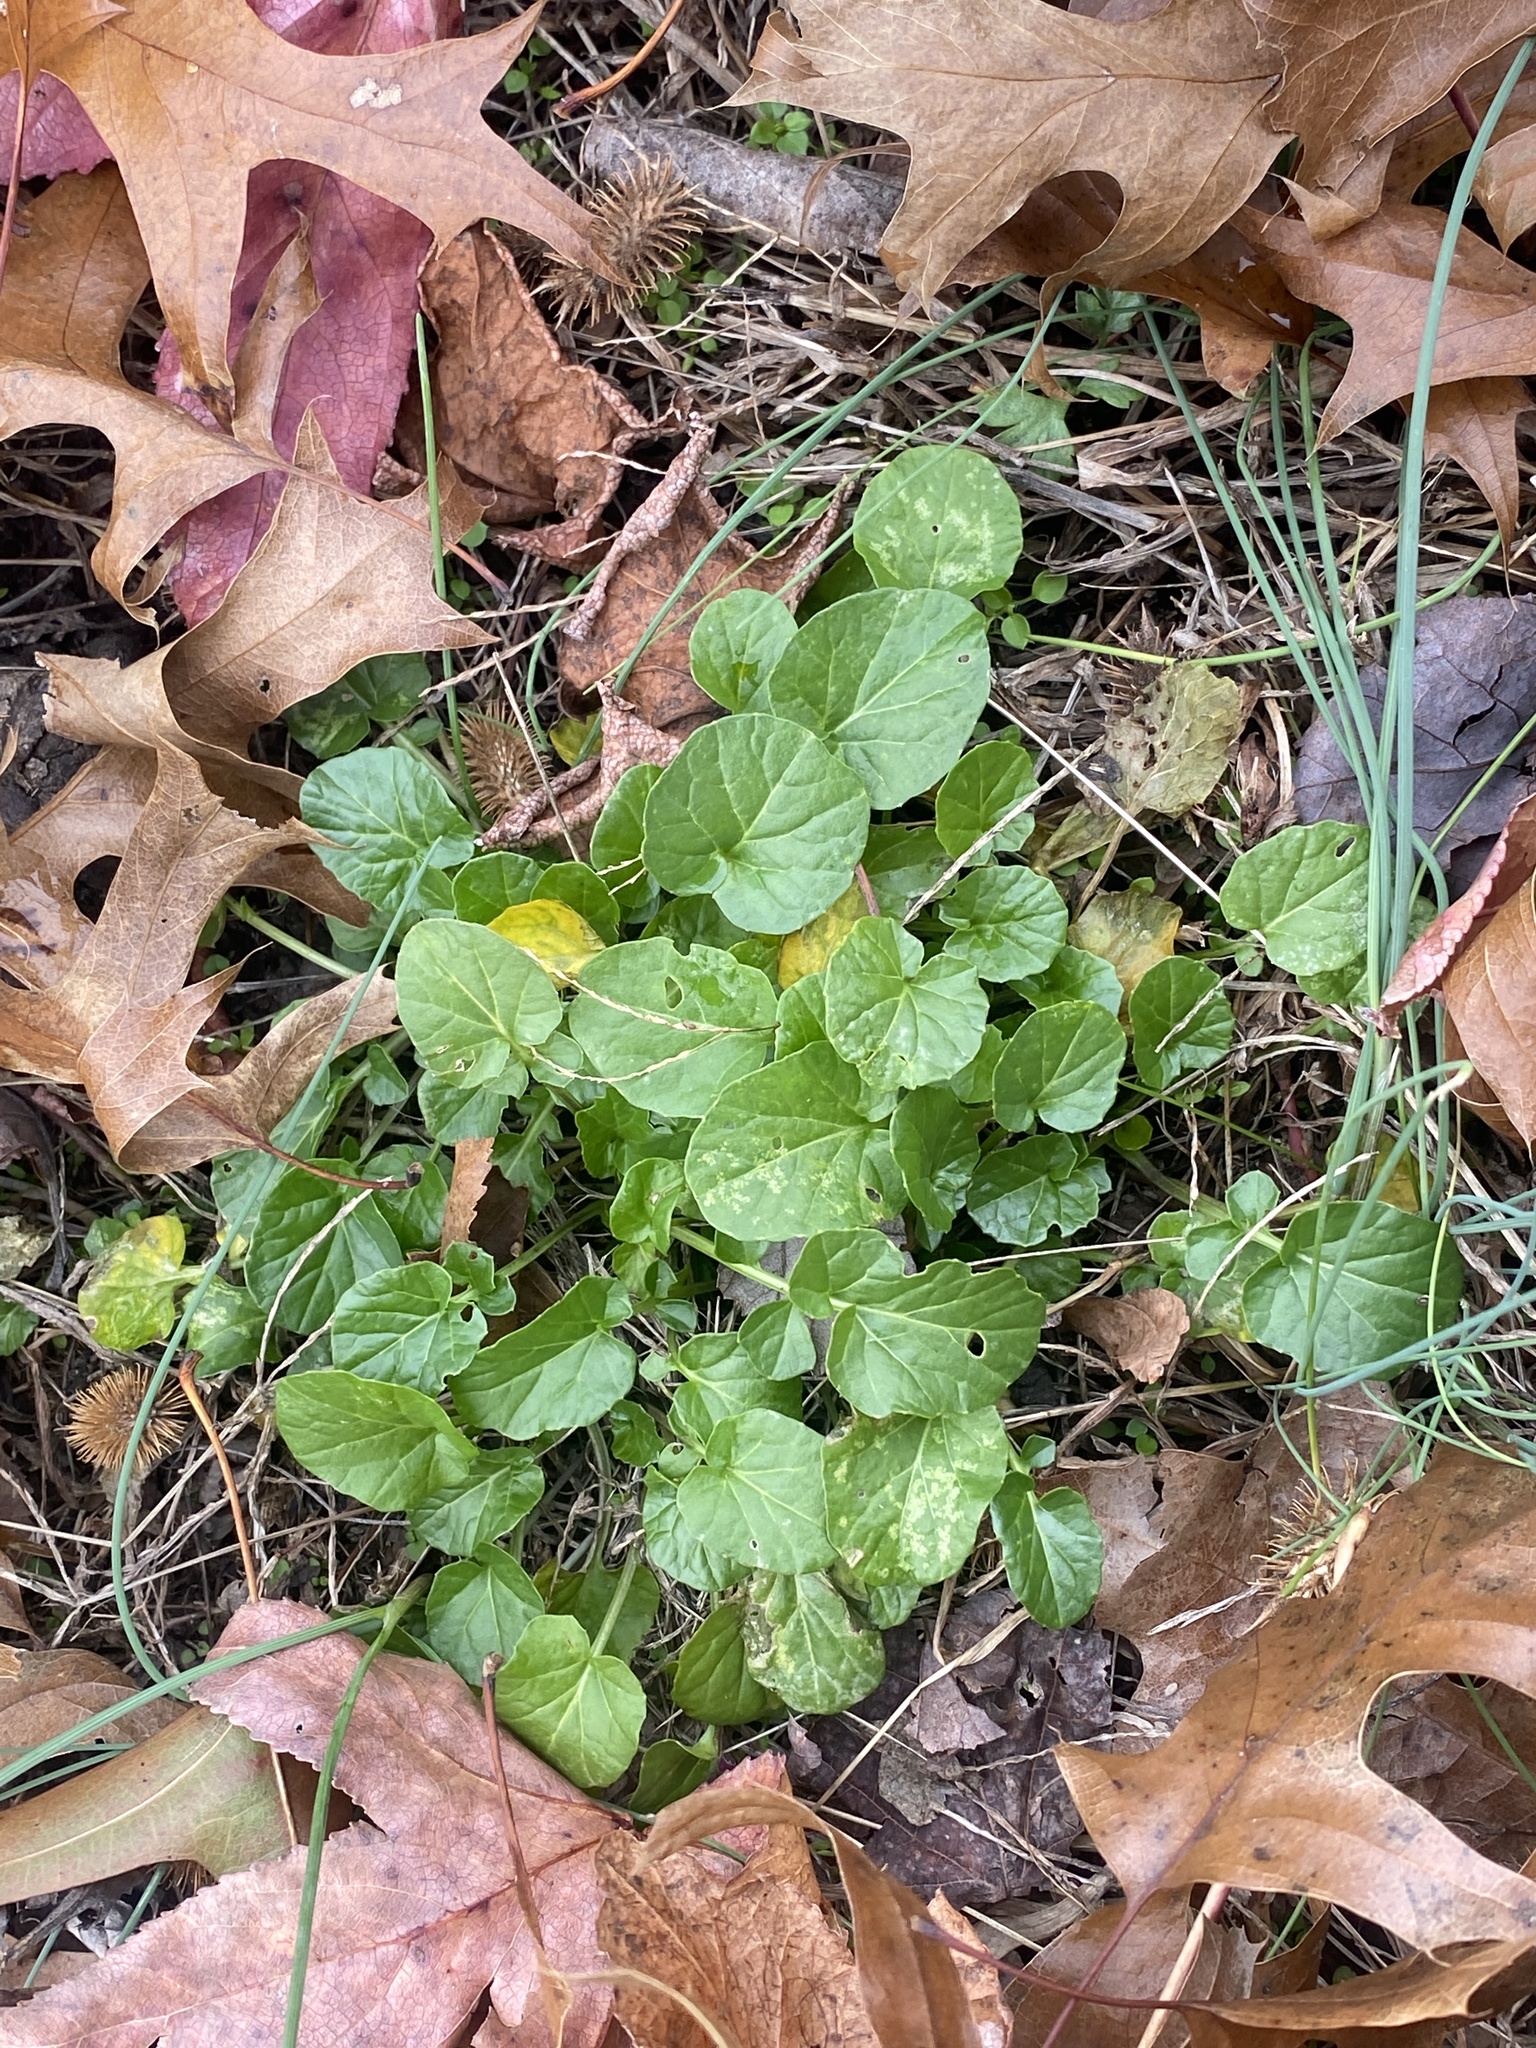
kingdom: Plantae
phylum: Tracheophyta
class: Magnoliopsida
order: Brassicales
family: Brassicaceae
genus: Barbarea
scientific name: Barbarea vulgaris
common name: Cressy-greens
